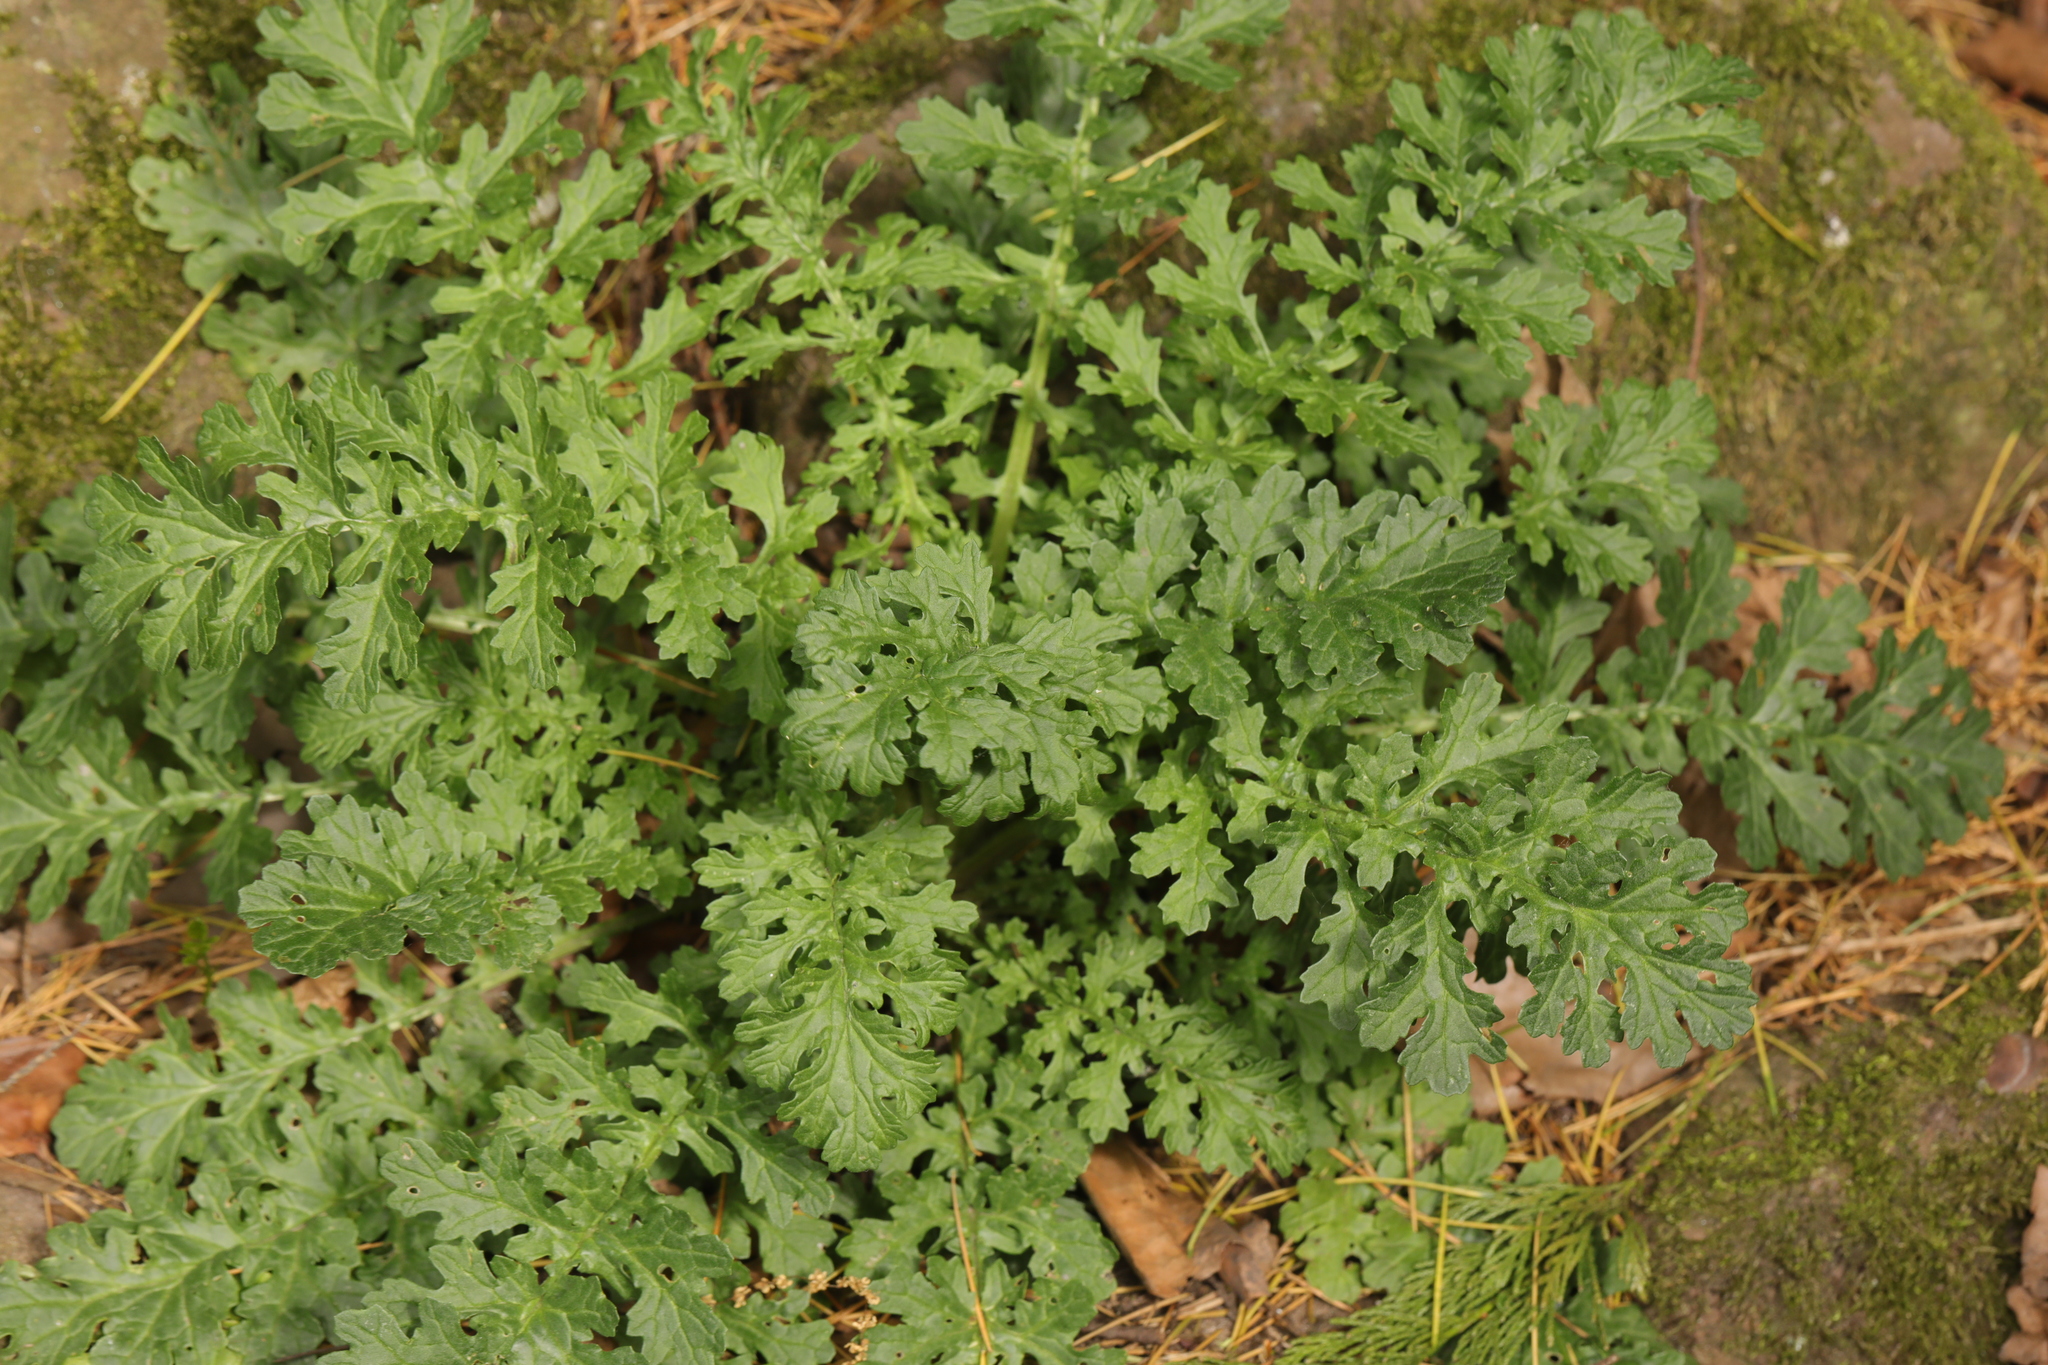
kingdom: Plantae
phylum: Tracheophyta
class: Magnoliopsida
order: Asterales
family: Asteraceae
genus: Jacobaea
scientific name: Jacobaea vulgaris
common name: Stinking willie
